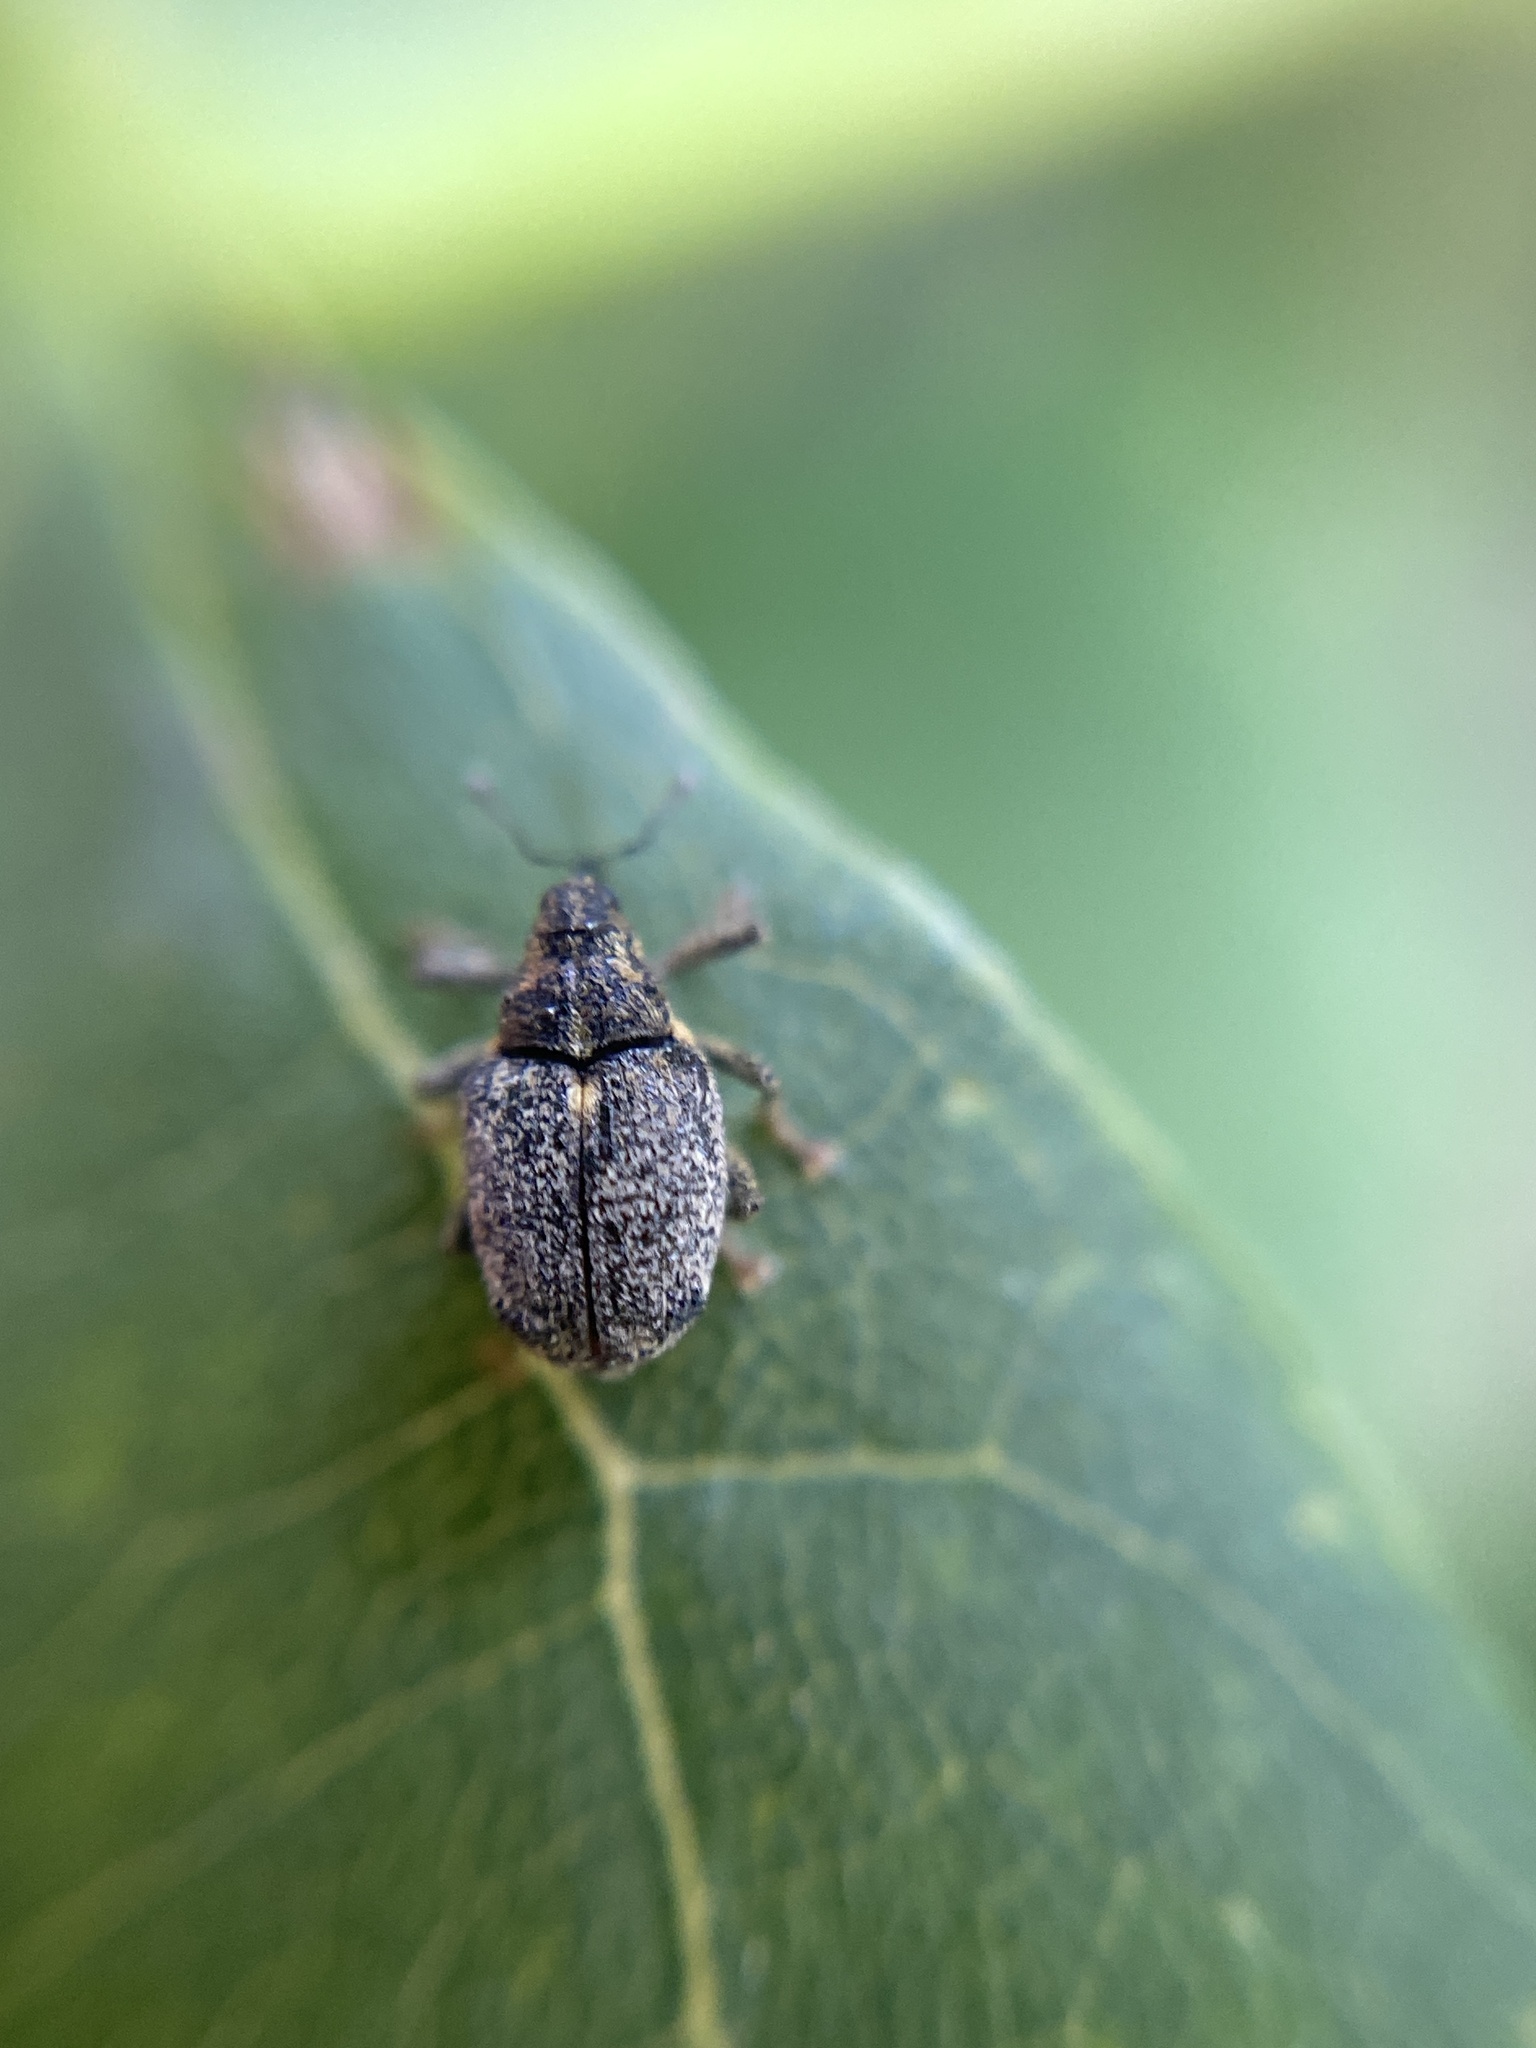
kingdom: Animalia
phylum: Arthropoda
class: Insecta
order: Coleoptera
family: Curculionidae
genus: Ceutorhynchus
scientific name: Ceutorhynchus pallidactylus
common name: Cabbage stem weavil
